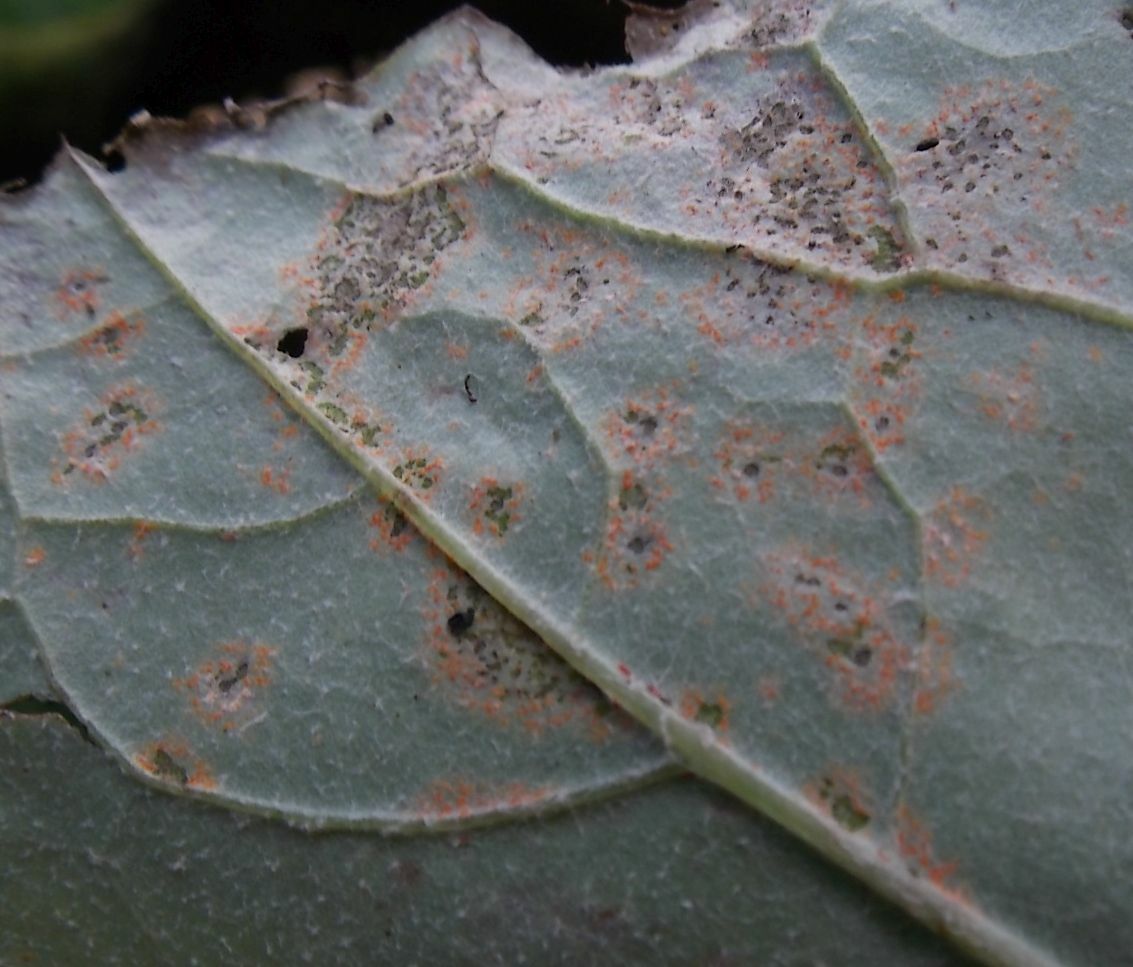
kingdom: Fungi
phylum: Basidiomycota
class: Pucciniomycetes
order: Pucciniales
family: Coleosporiaceae
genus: Coleosporium
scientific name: Coleosporium tussilaginis
